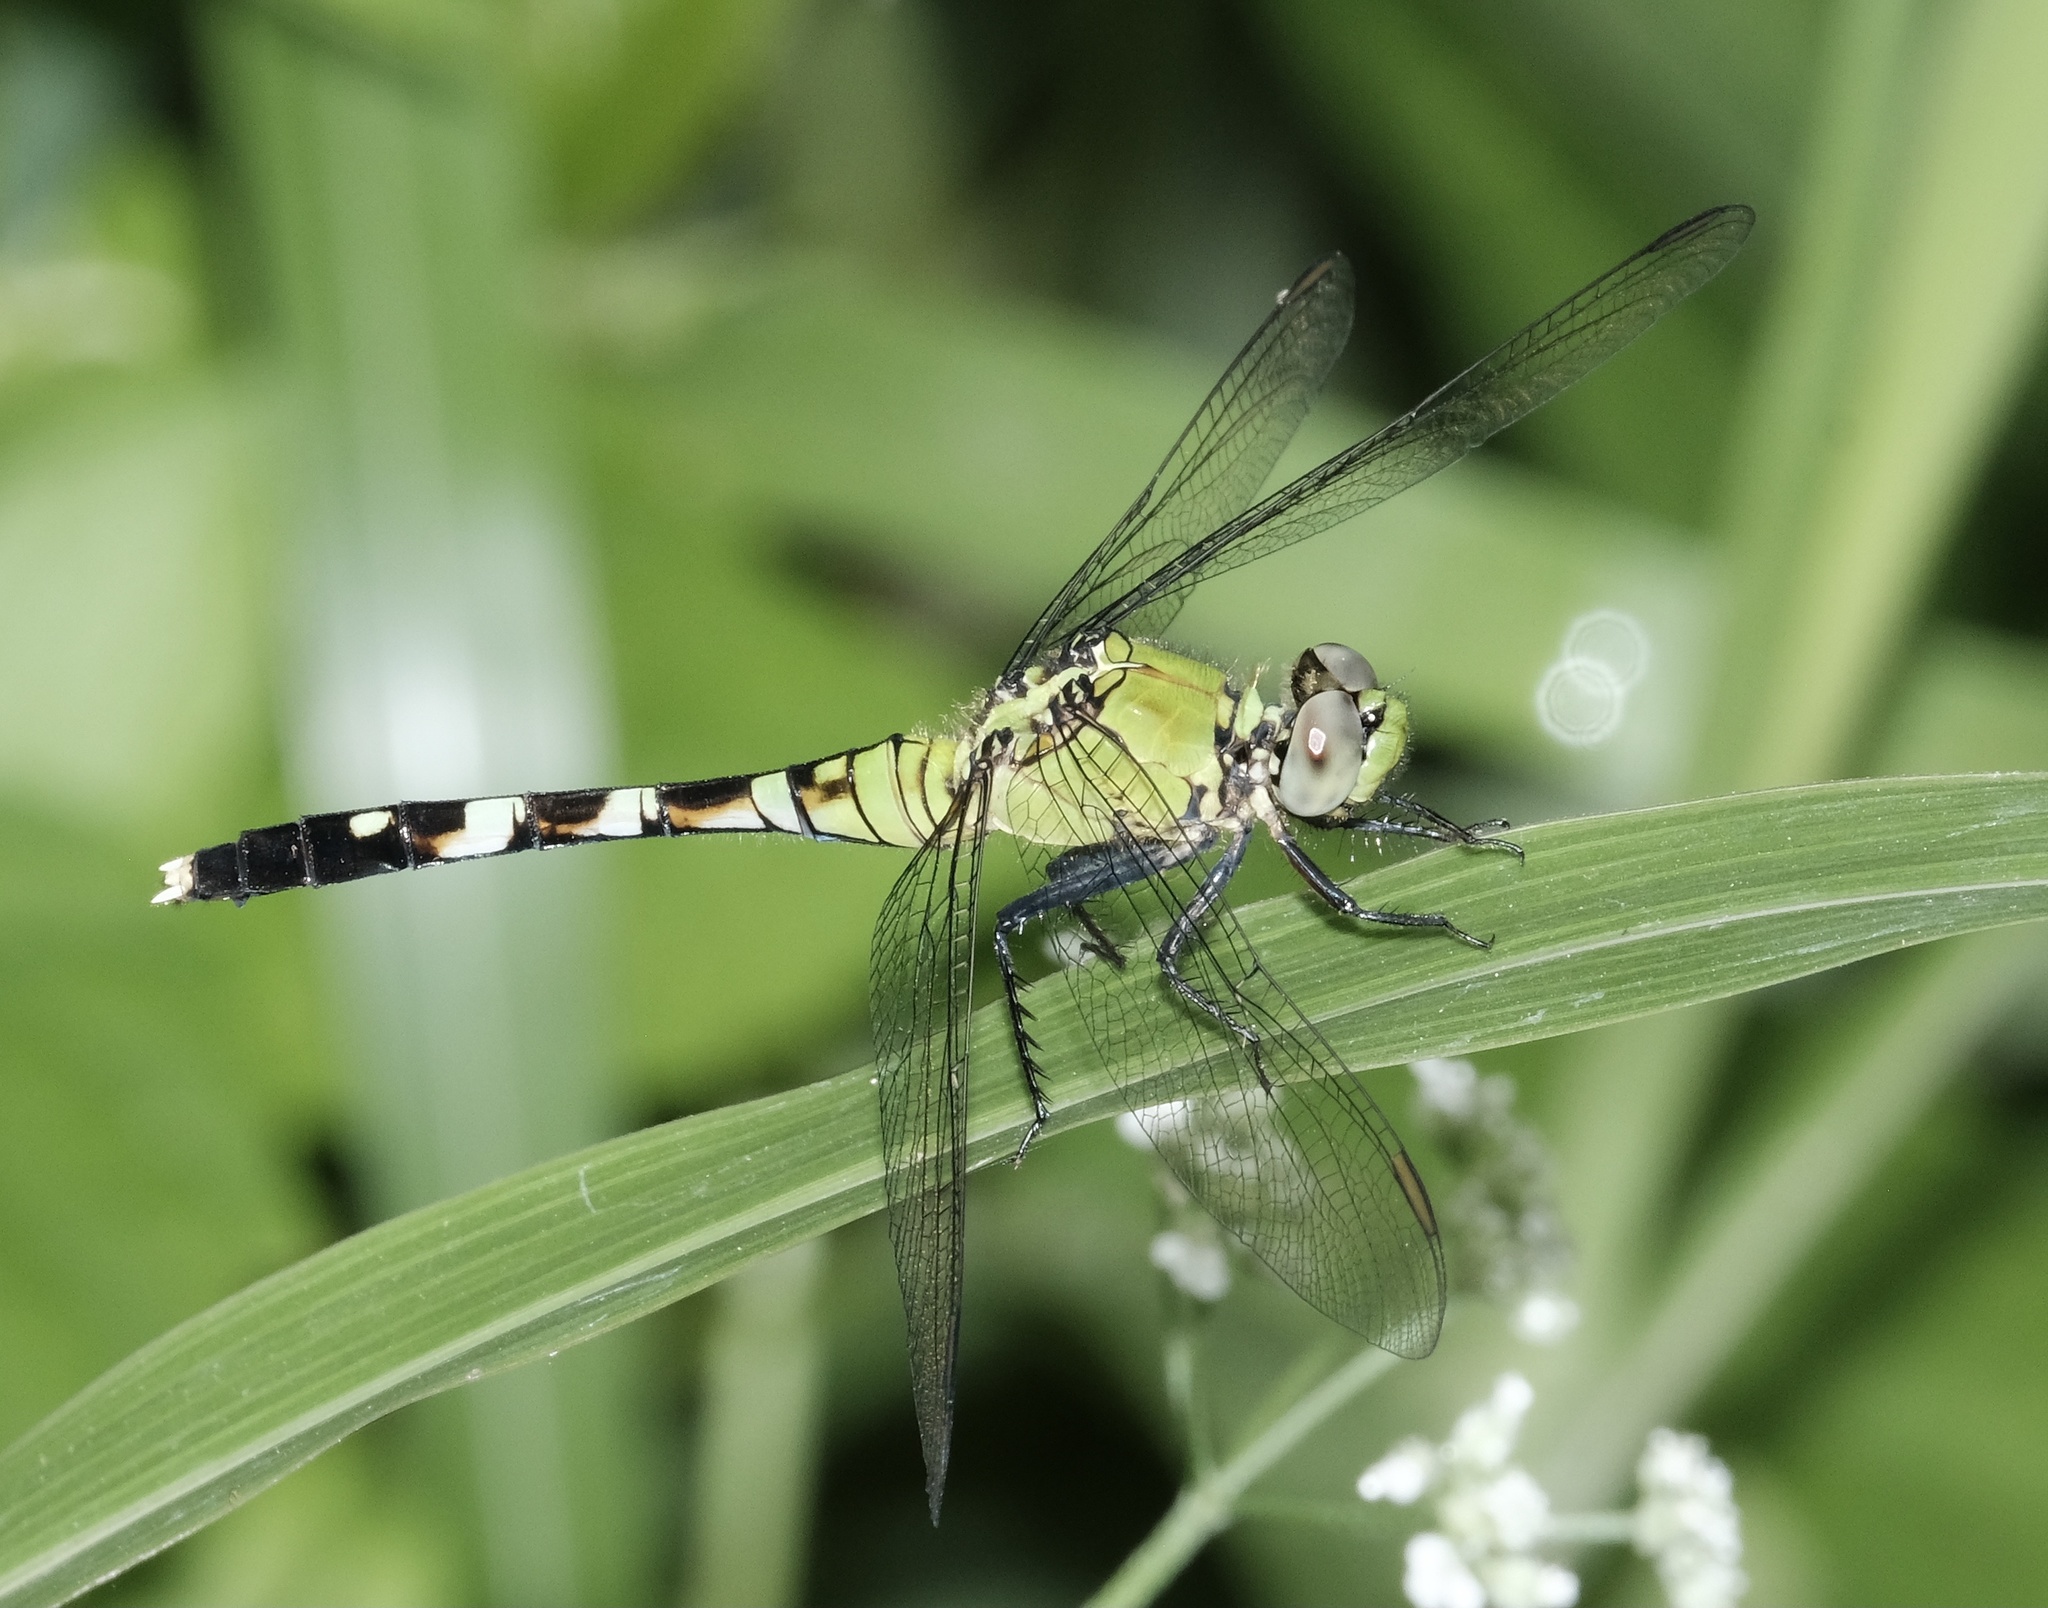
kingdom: Animalia
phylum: Arthropoda
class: Insecta
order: Odonata
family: Libellulidae
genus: Erythemis
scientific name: Erythemis simplicicollis
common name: Eastern pondhawk
